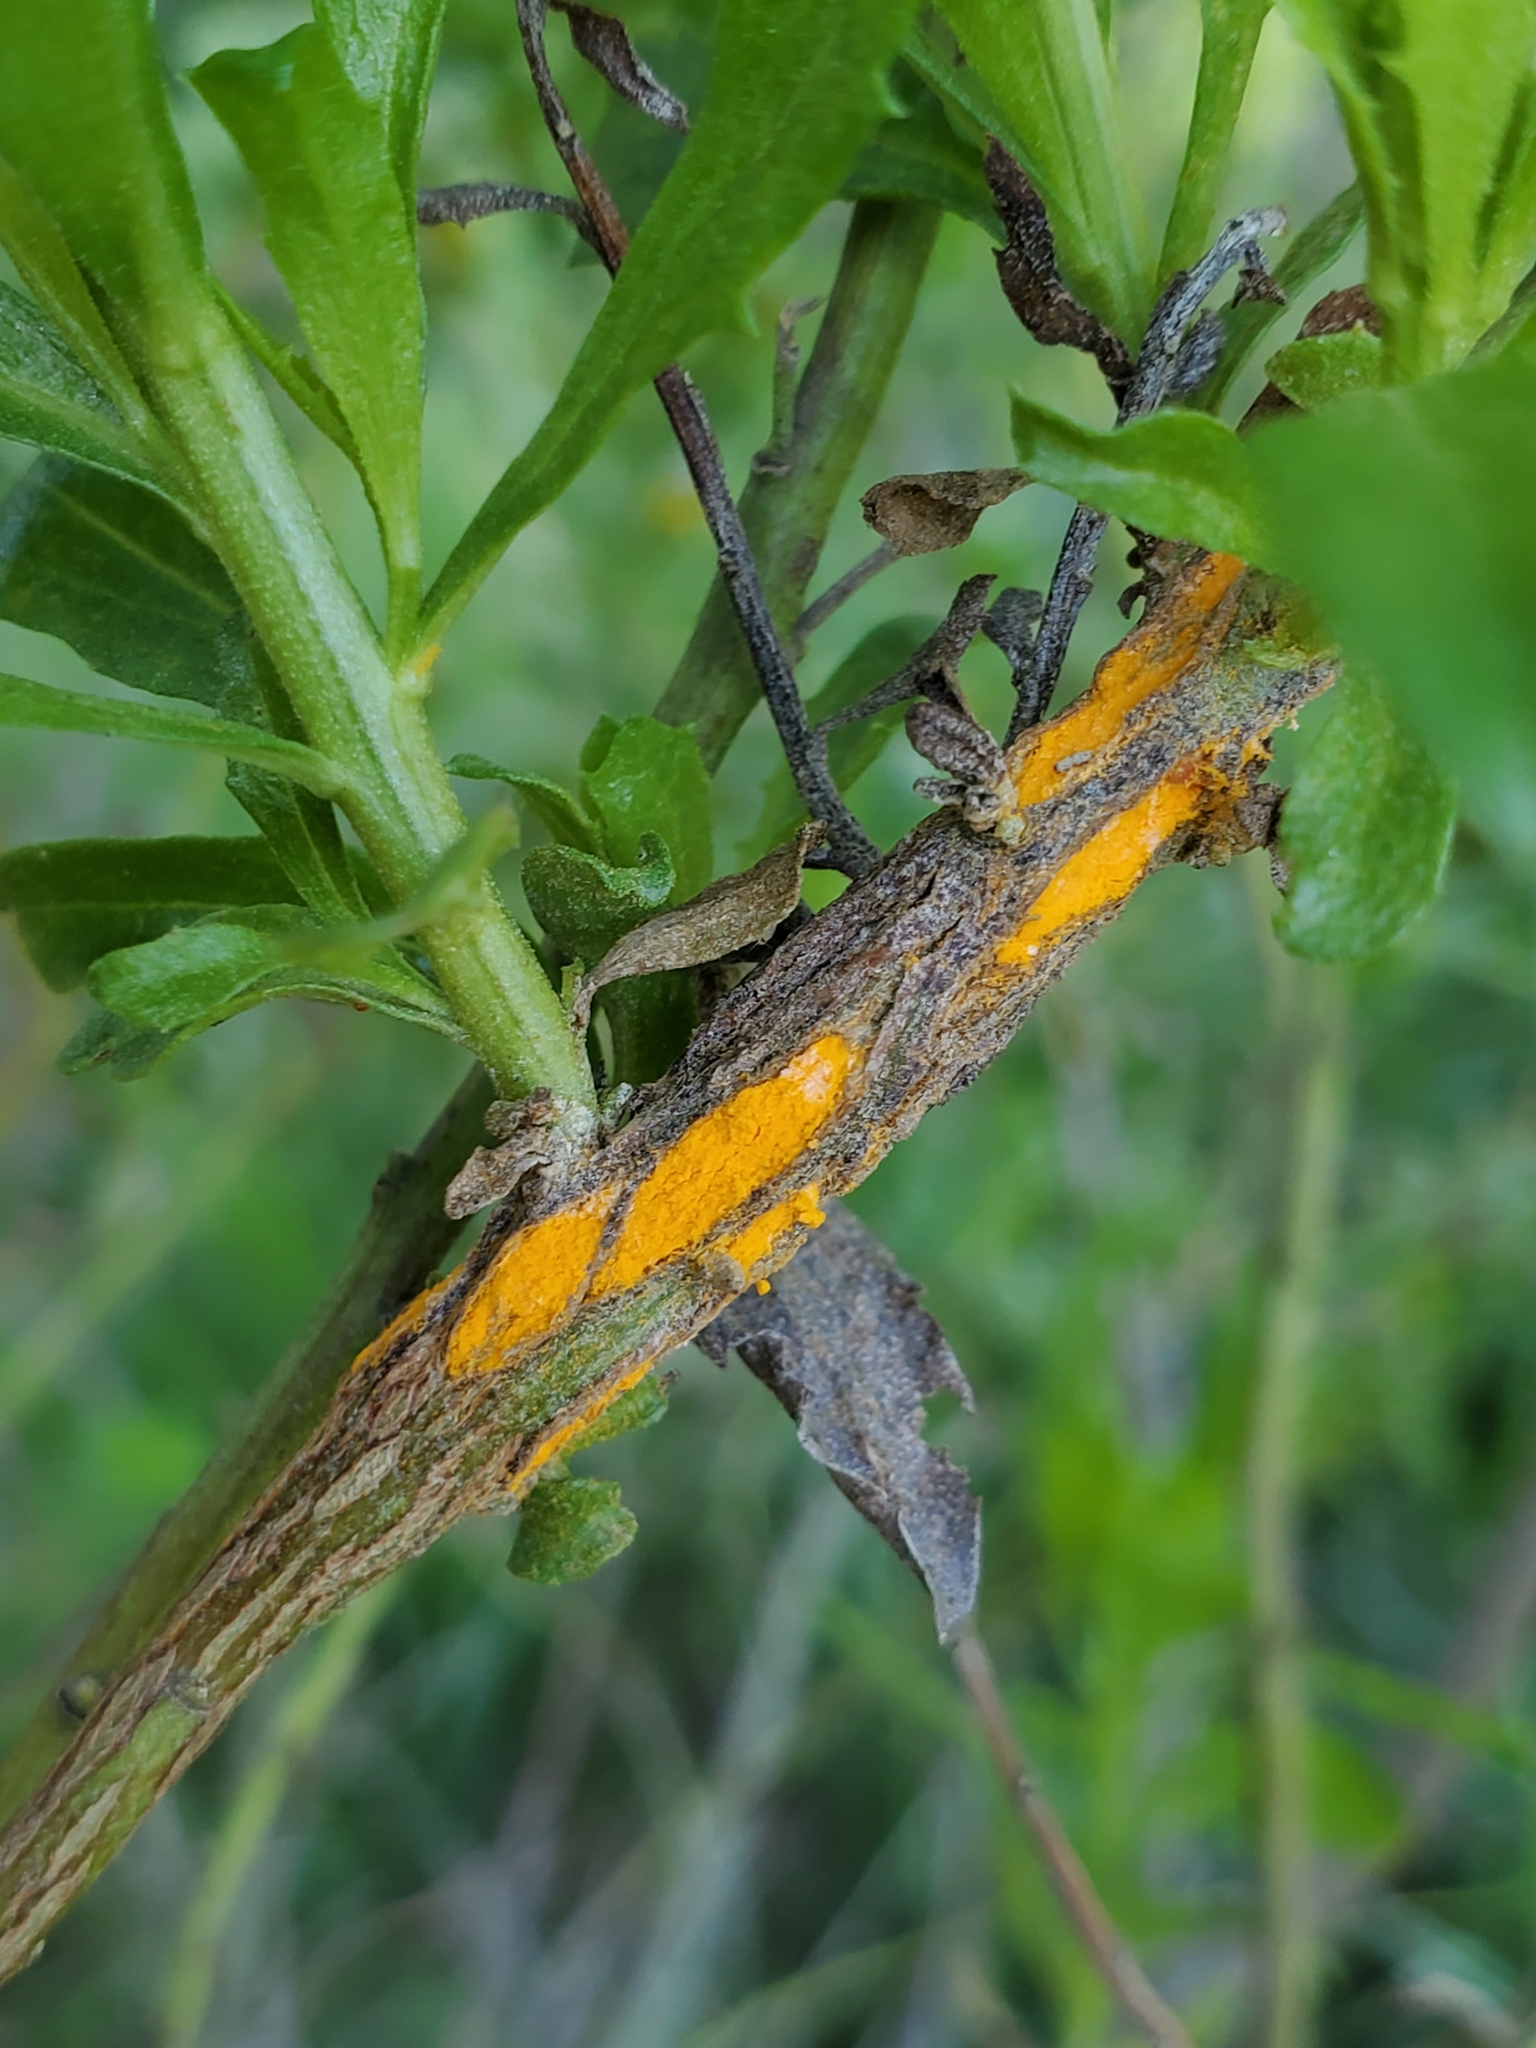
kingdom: Fungi
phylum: Basidiomycota
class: Pucciniomycetes
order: Pucciniales
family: Pucciniaceae
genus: Eriosporangium
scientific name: Eriosporangium evadens
